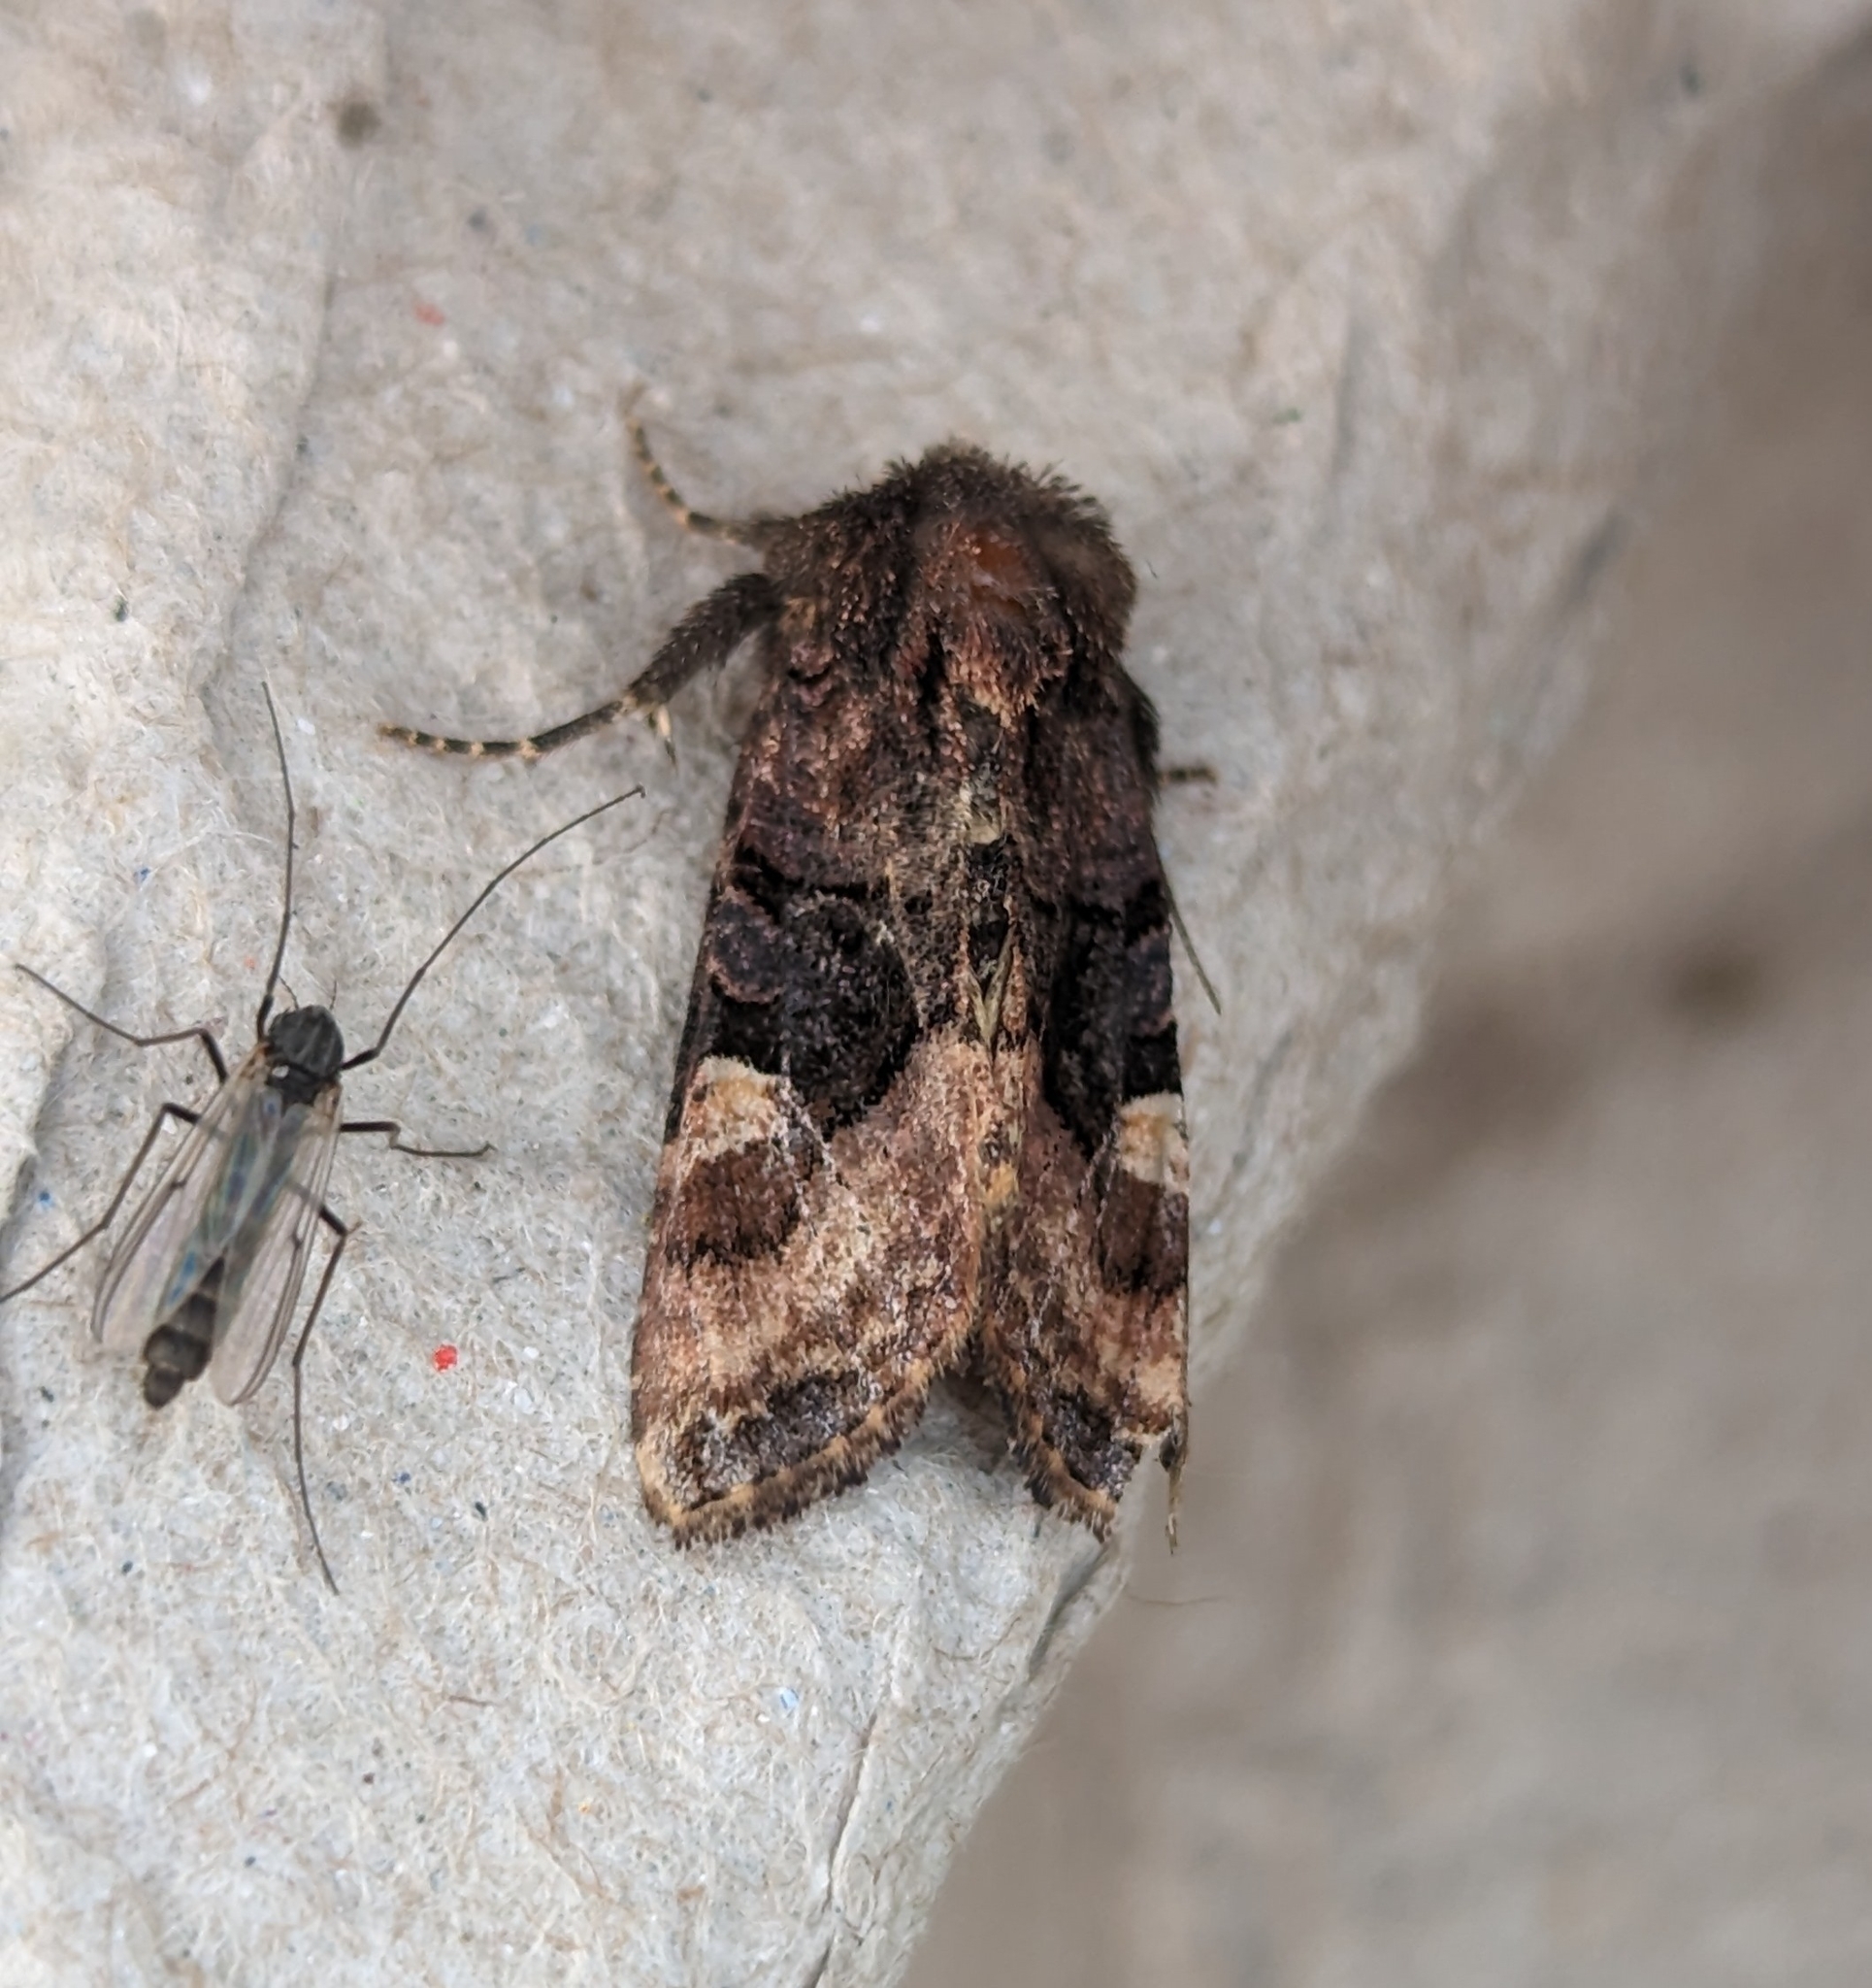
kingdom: Animalia
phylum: Arthropoda
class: Insecta
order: Lepidoptera
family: Noctuidae
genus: Euplexia
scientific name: Euplexia benesimilis
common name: American angle shades
